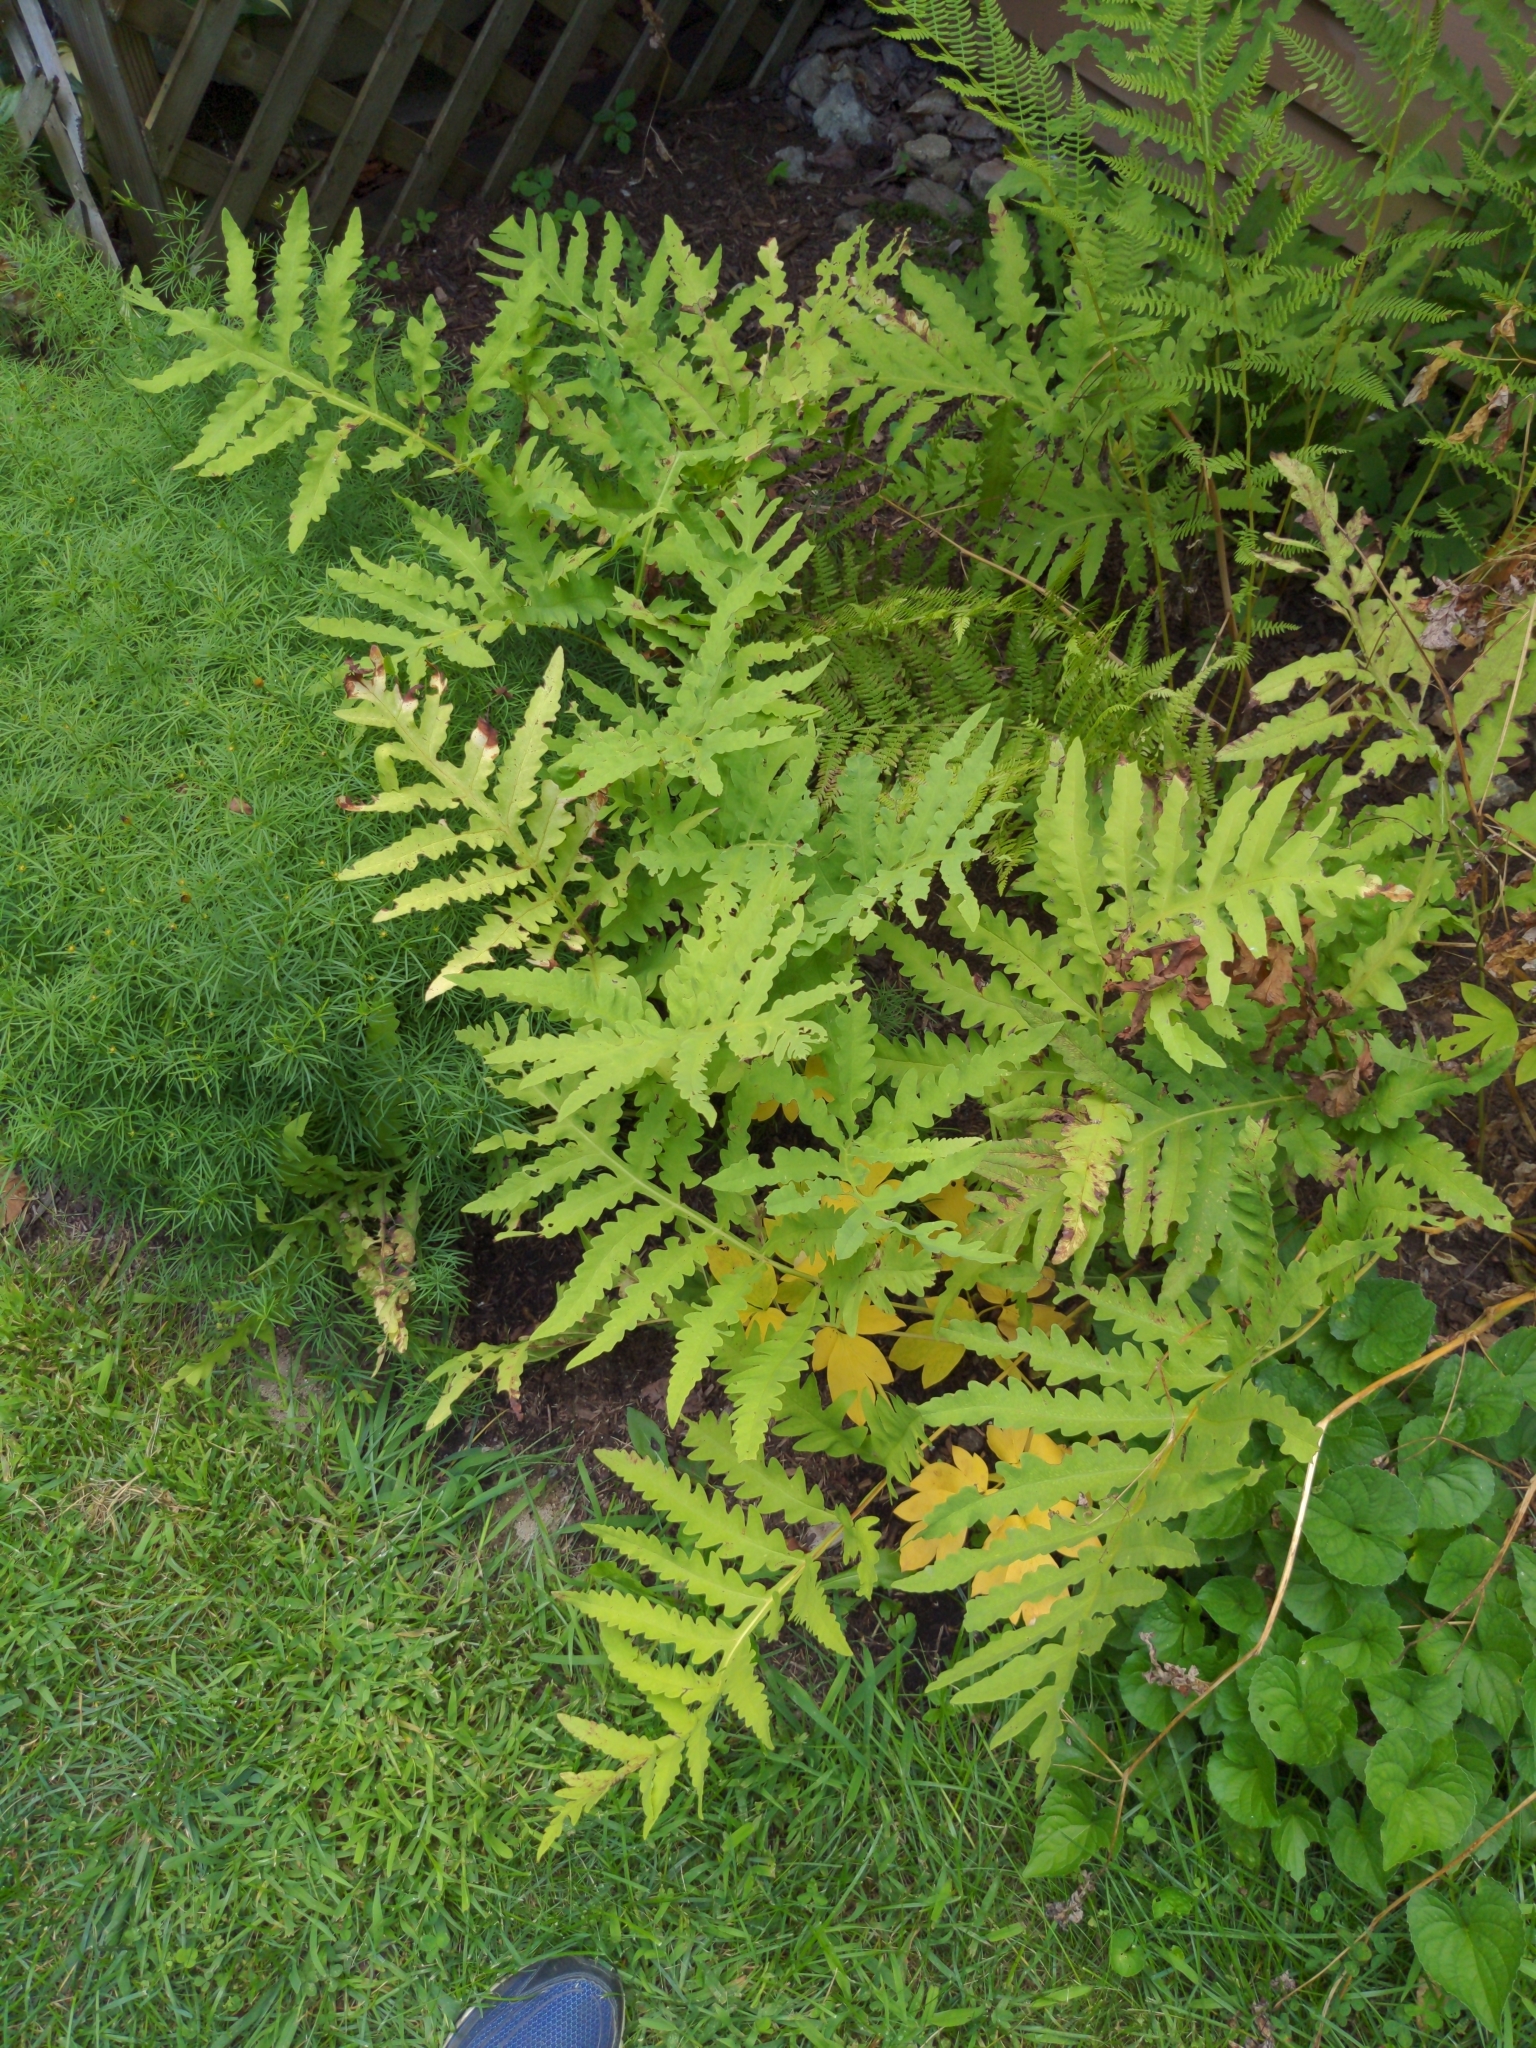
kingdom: Plantae
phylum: Tracheophyta
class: Polypodiopsida
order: Polypodiales
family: Onocleaceae
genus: Onoclea
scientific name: Onoclea sensibilis
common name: Sensitive fern
